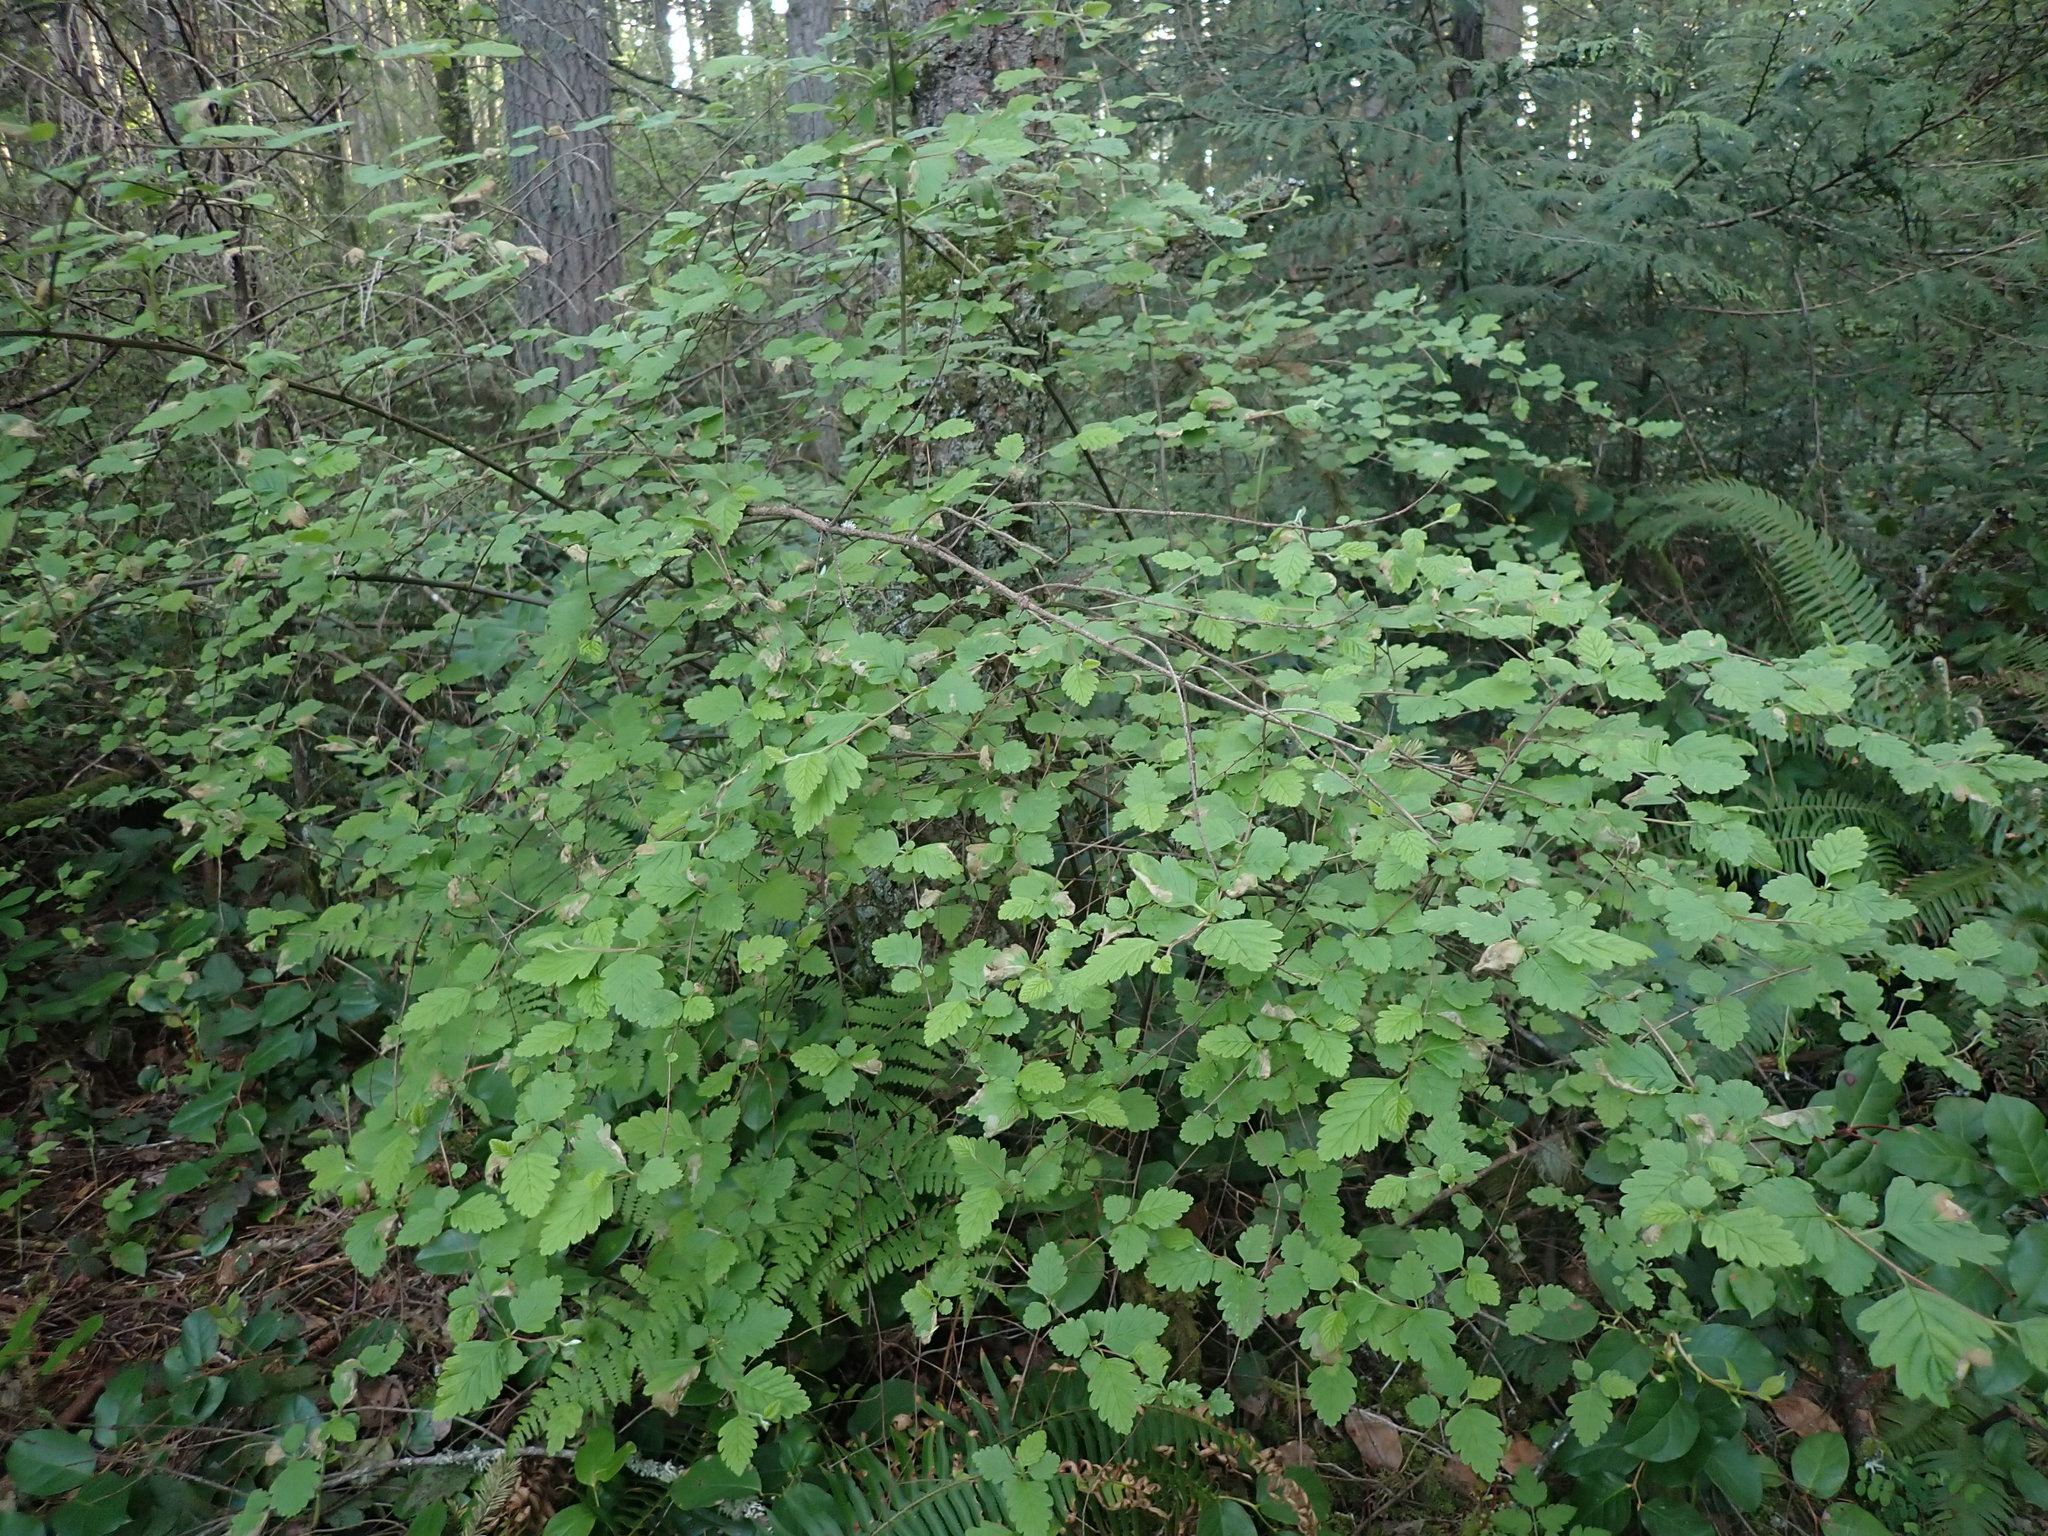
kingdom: Plantae
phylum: Tracheophyta
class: Magnoliopsida
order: Rosales
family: Rosaceae
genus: Holodiscus
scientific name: Holodiscus discolor
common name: Oceanspray
